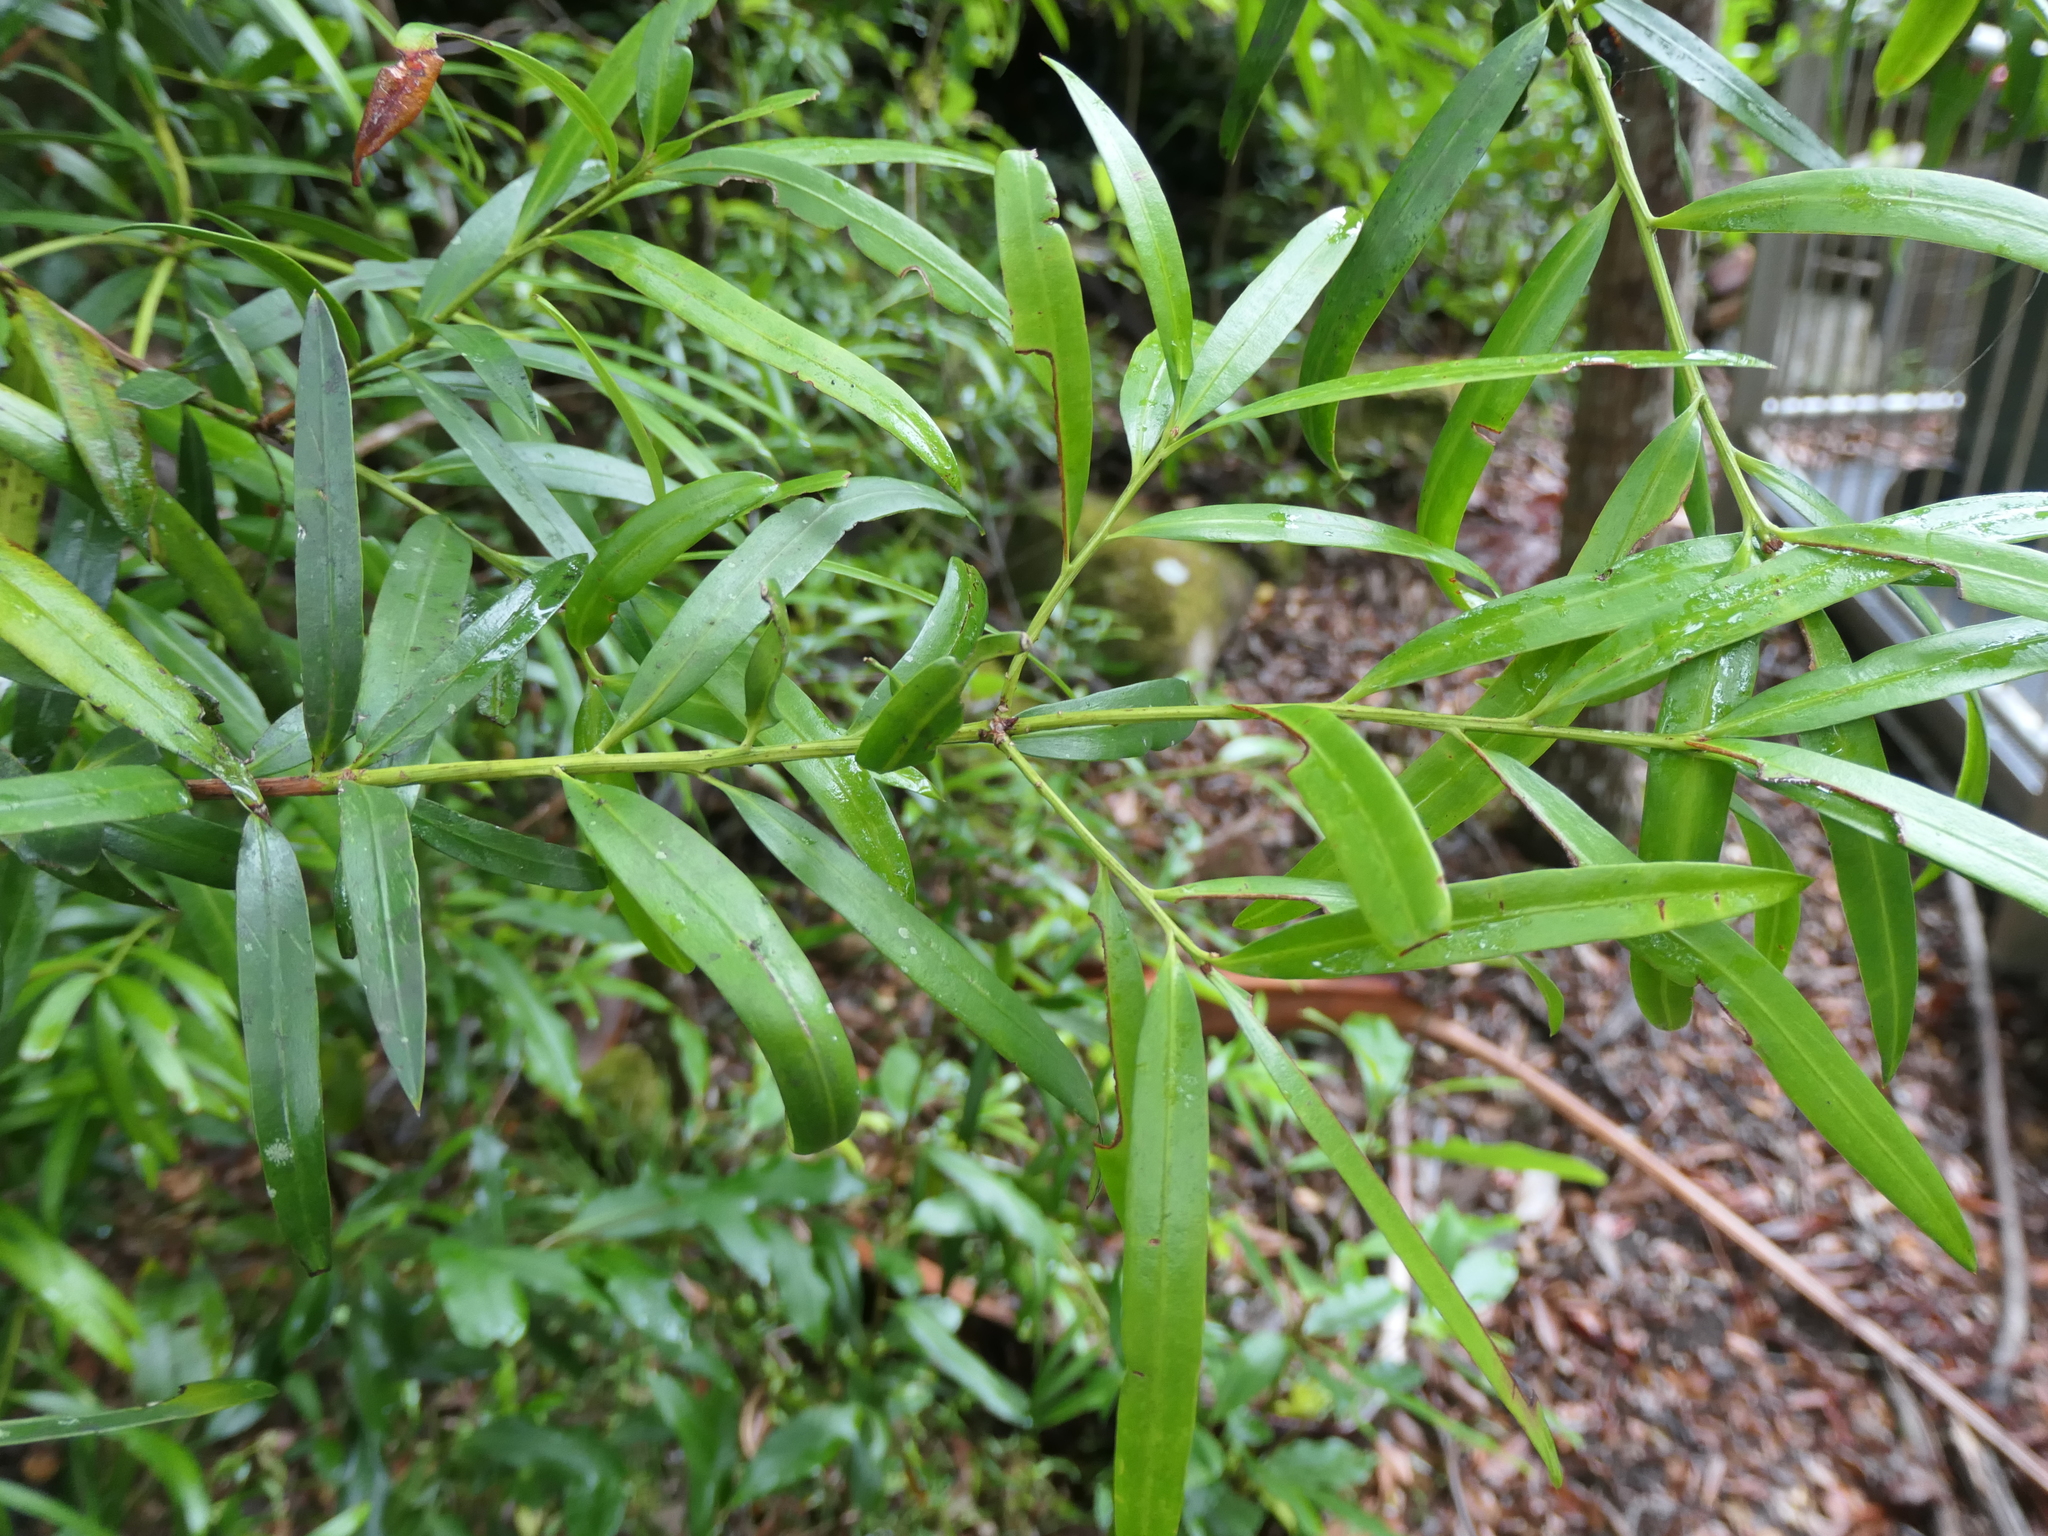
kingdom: Plantae
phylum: Tracheophyta
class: Pinopsida
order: Pinales
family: Podocarpaceae
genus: Podocarpus
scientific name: Podocarpus elatus
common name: Plum pine
